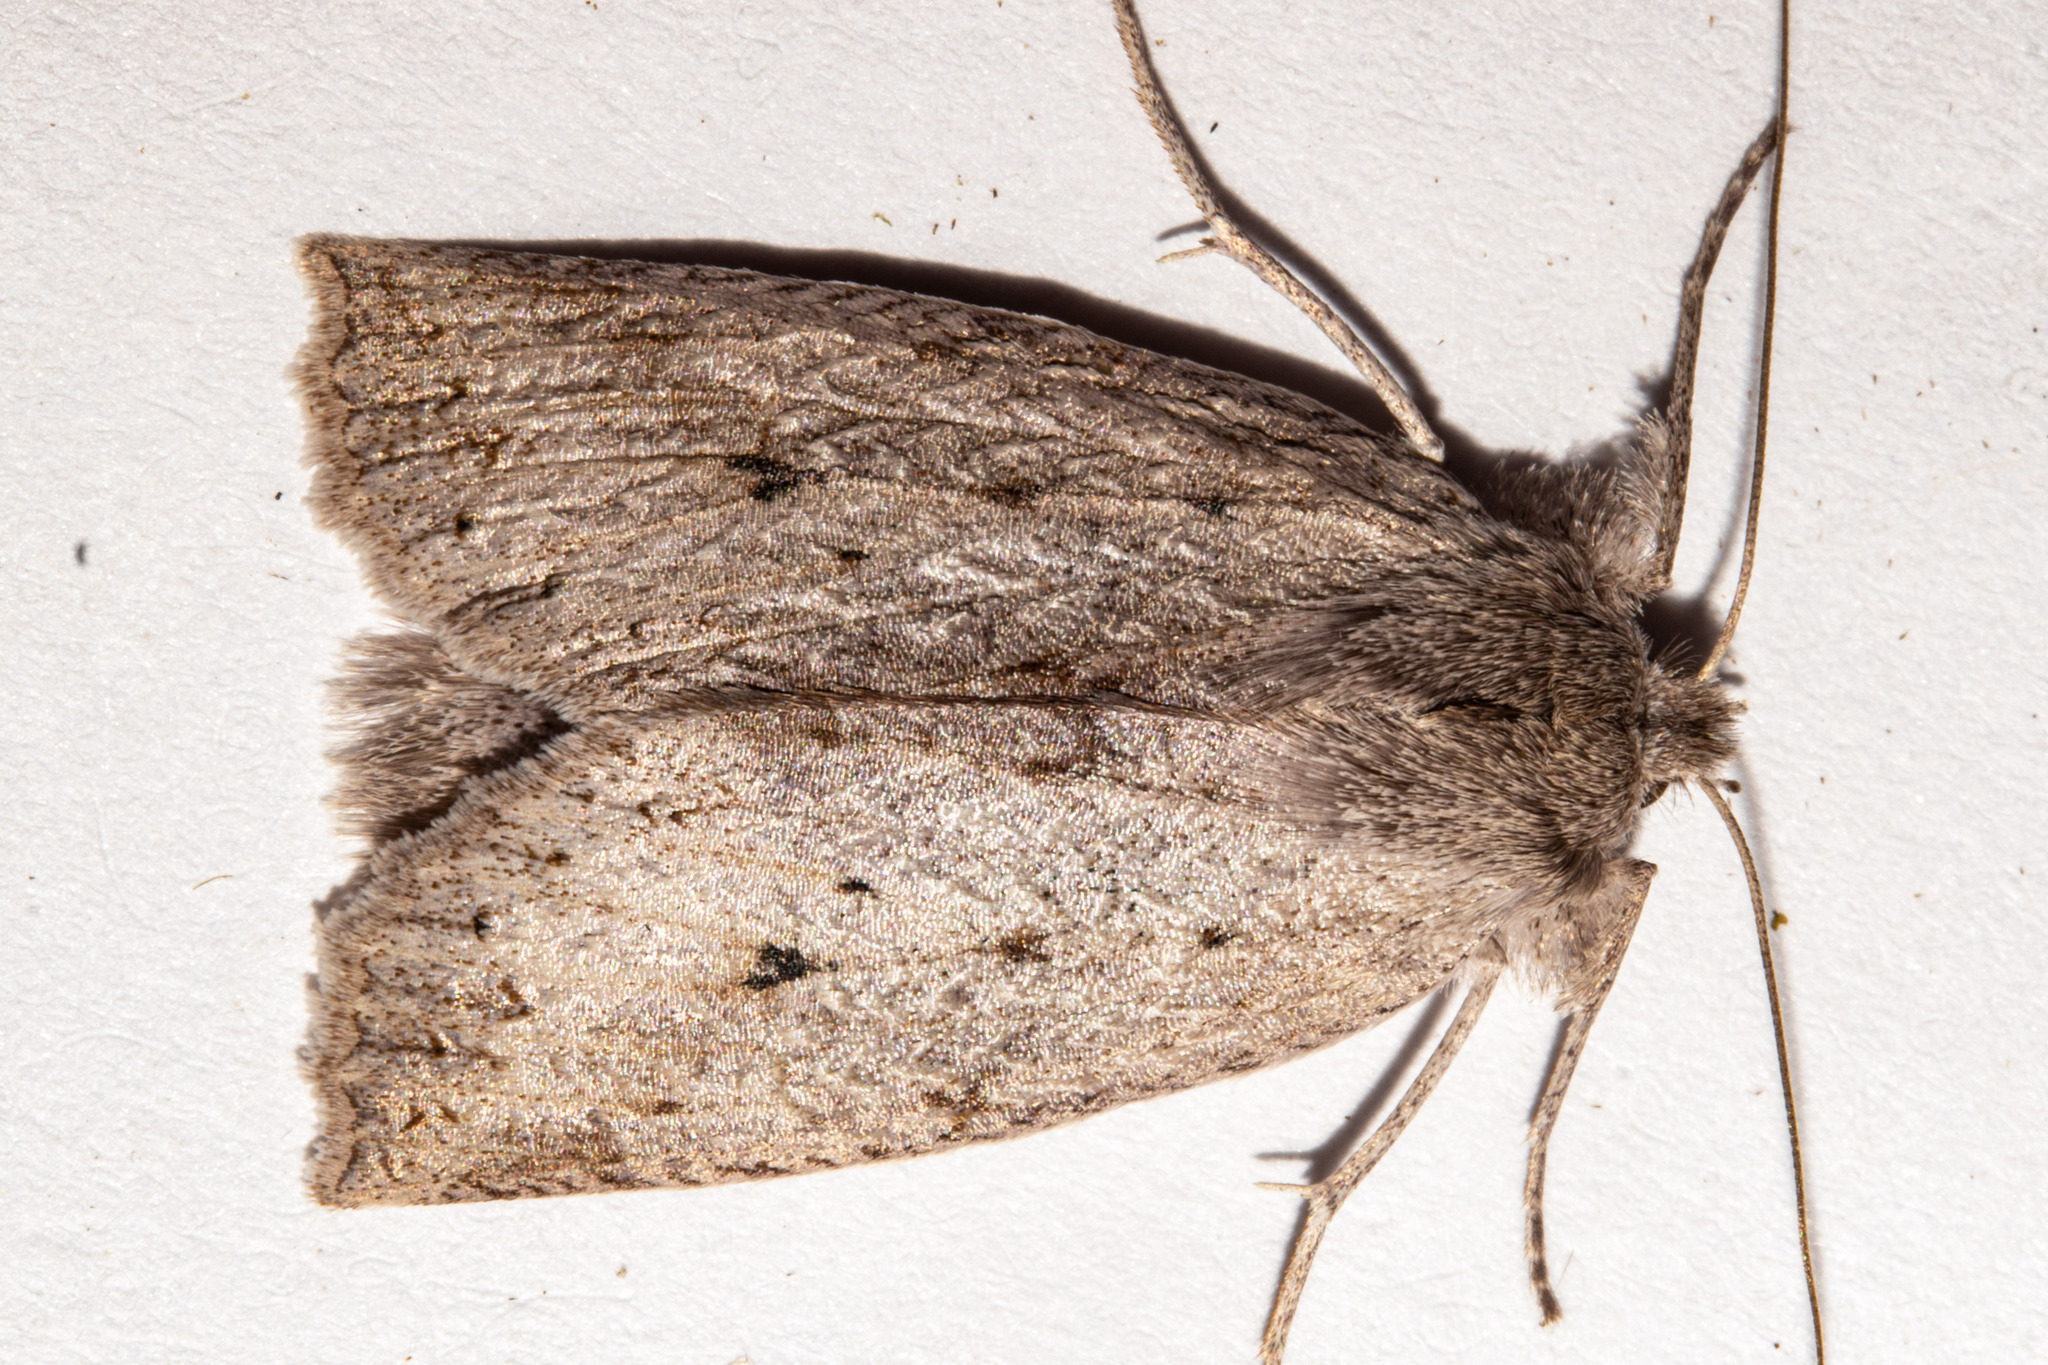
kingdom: Animalia
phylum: Arthropoda
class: Insecta
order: Lepidoptera
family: Geometridae
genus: Declana
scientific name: Declana leptomera
